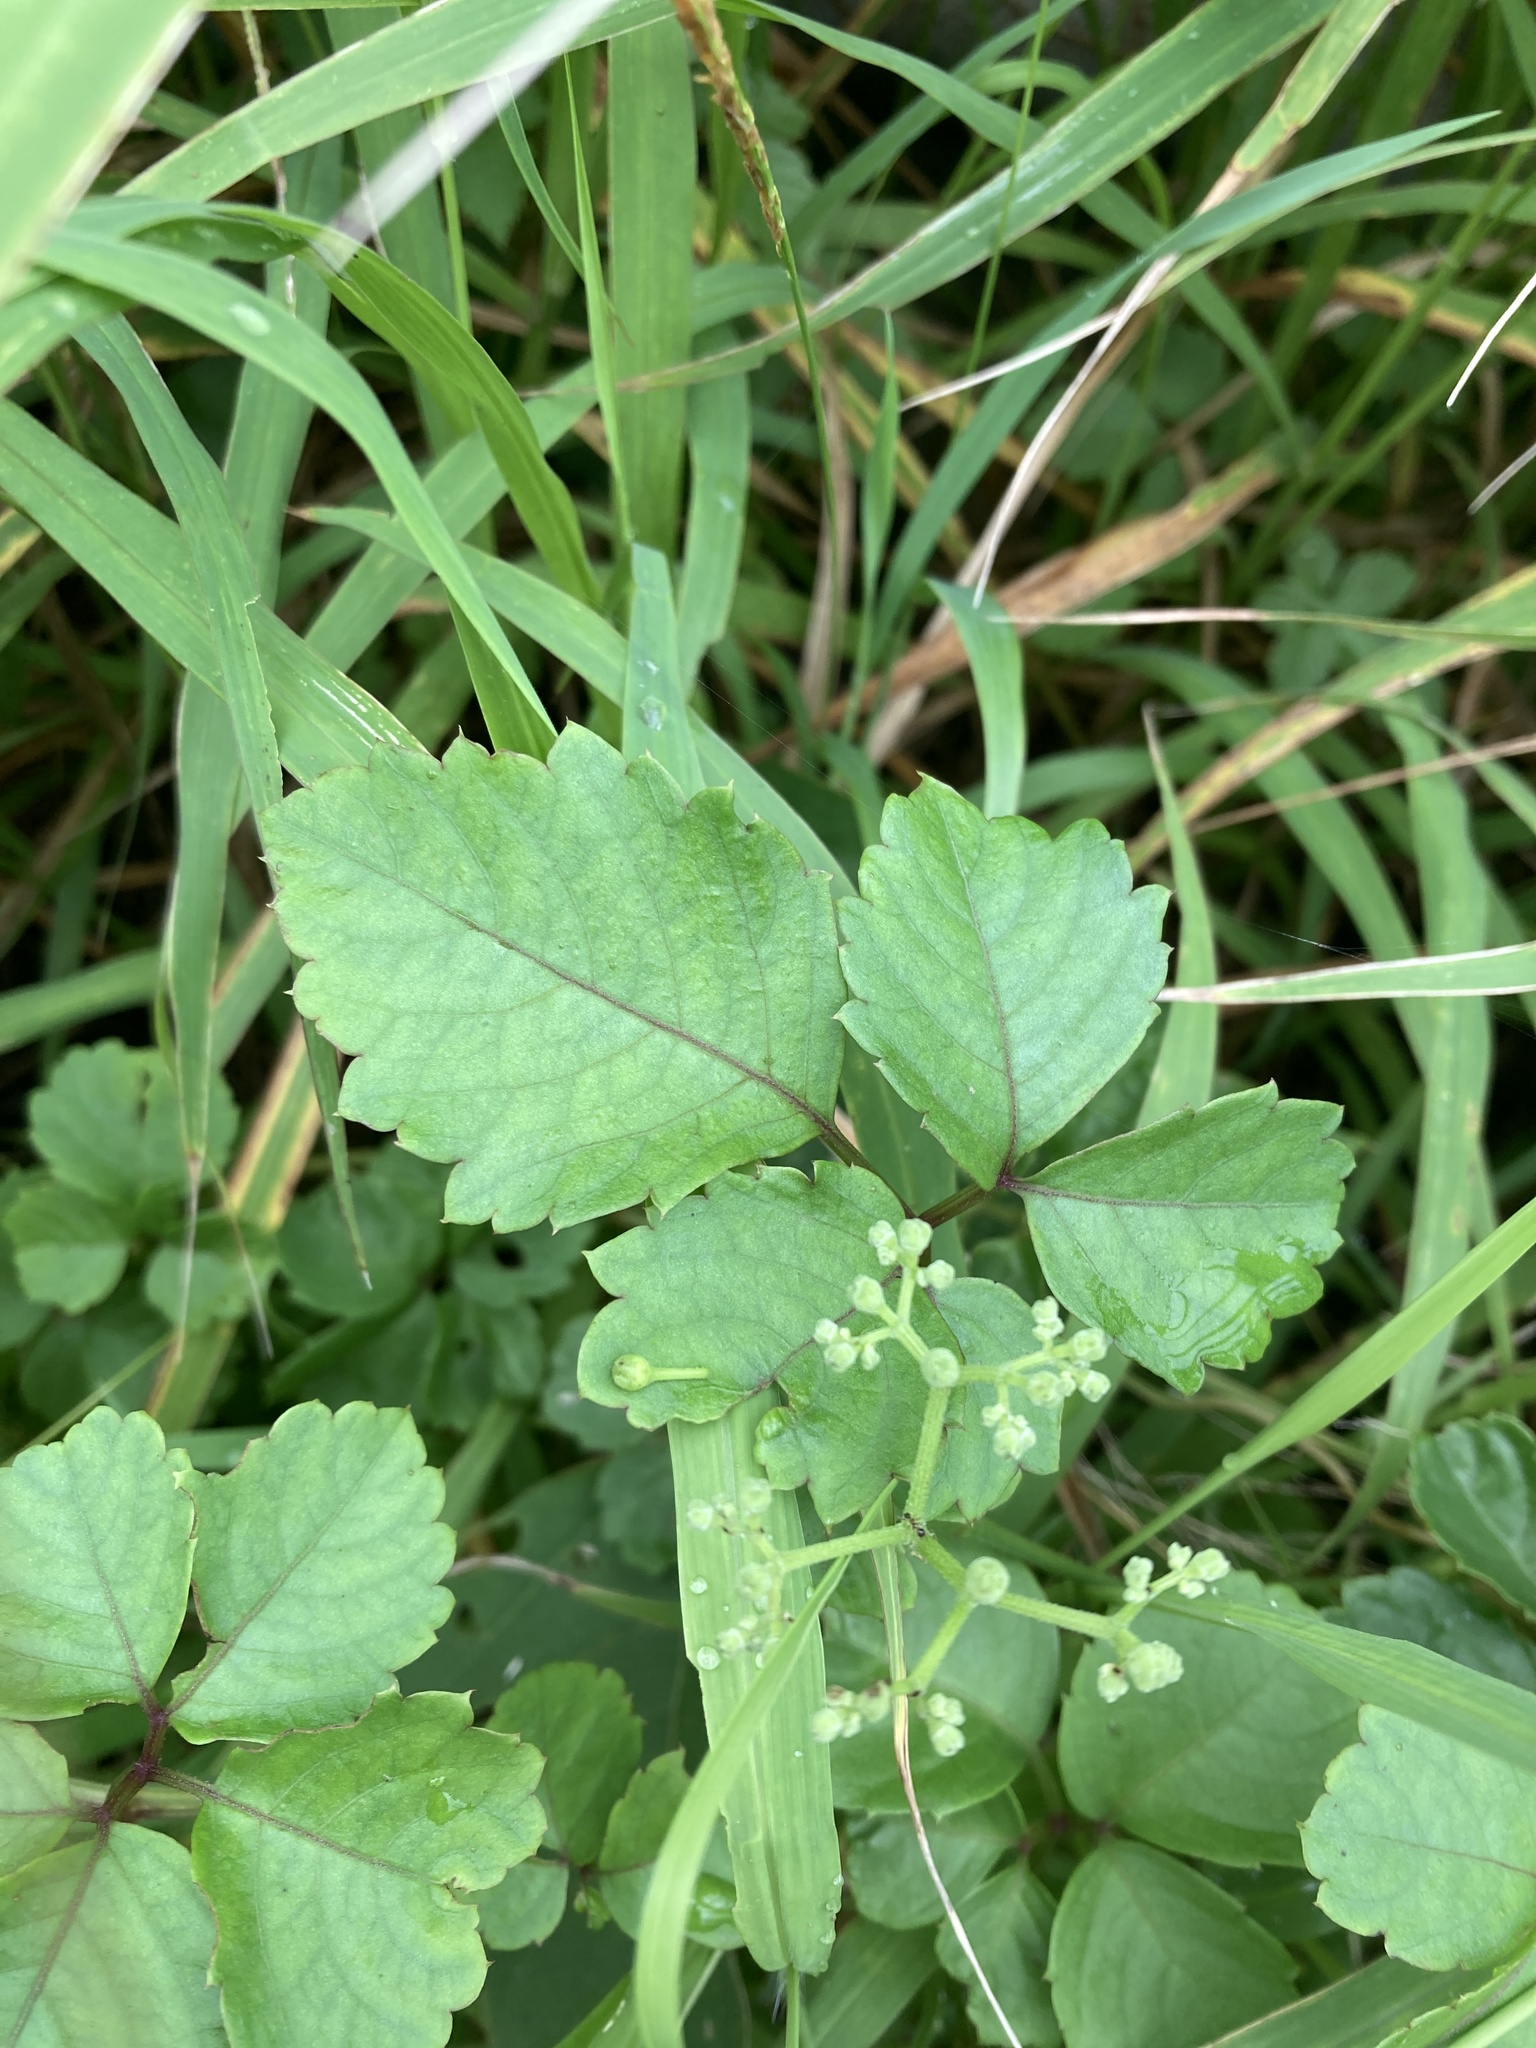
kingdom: Plantae
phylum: Tracheophyta
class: Magnoliopsida
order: Vitales
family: Vitaceae
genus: Causonis
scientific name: Causonis japonica
